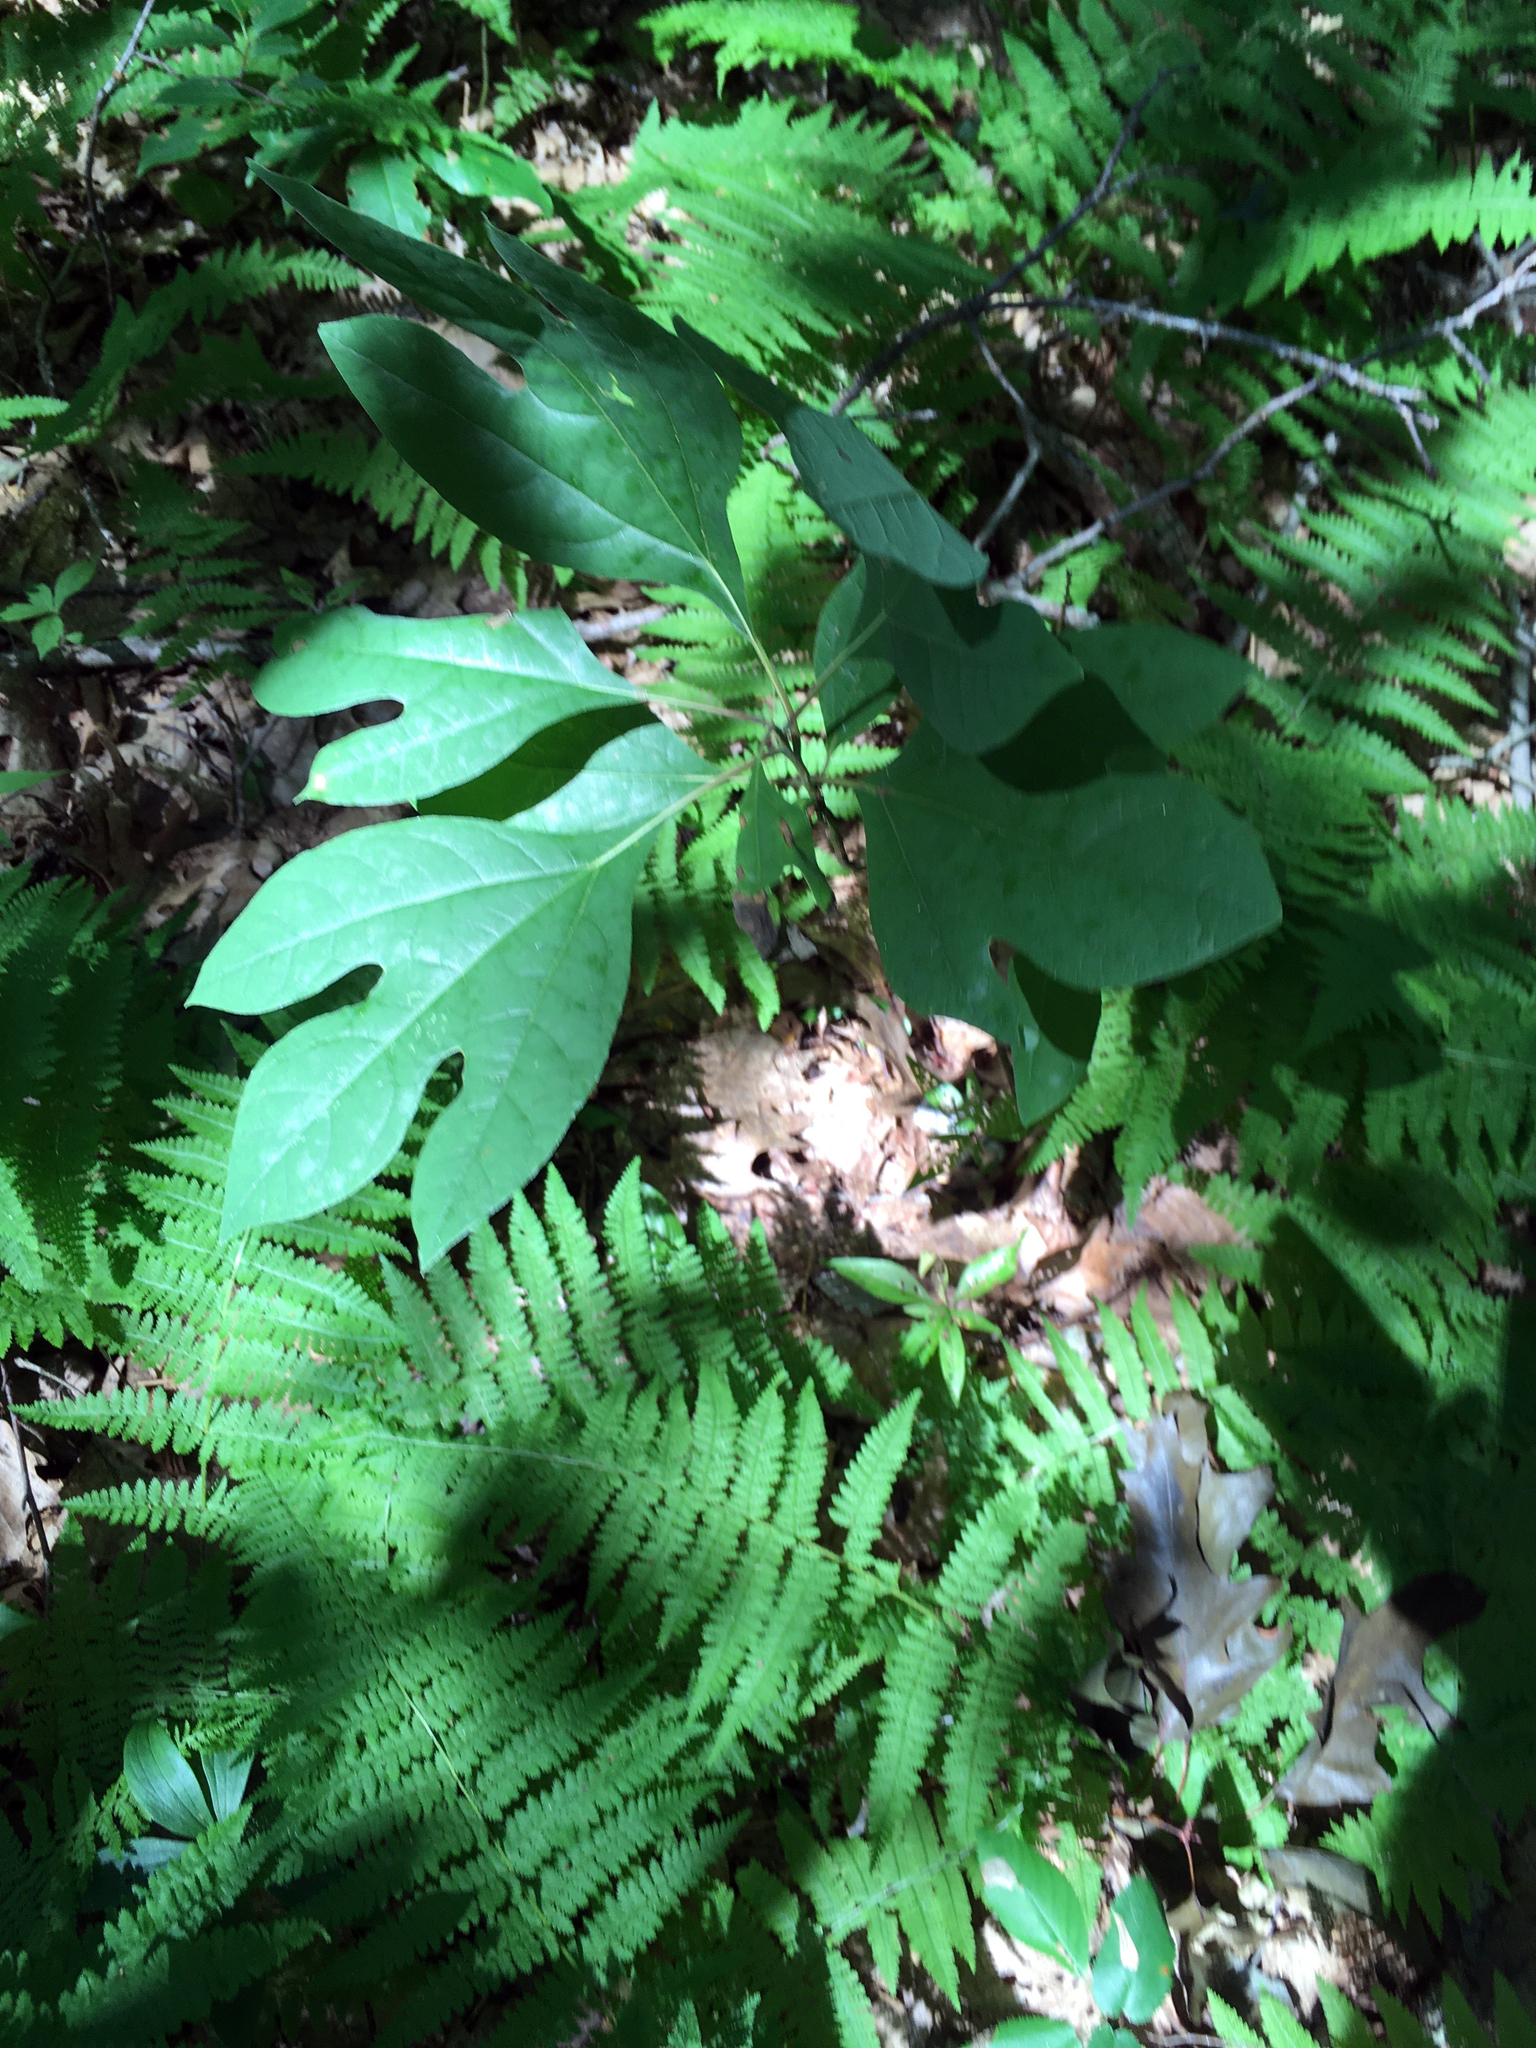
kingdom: Plantae
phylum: Tracheophyta
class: Magnoliopsida
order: Laurales
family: Lauraceae
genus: Sassafras
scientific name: Sassafras albidum
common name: Sassafras
